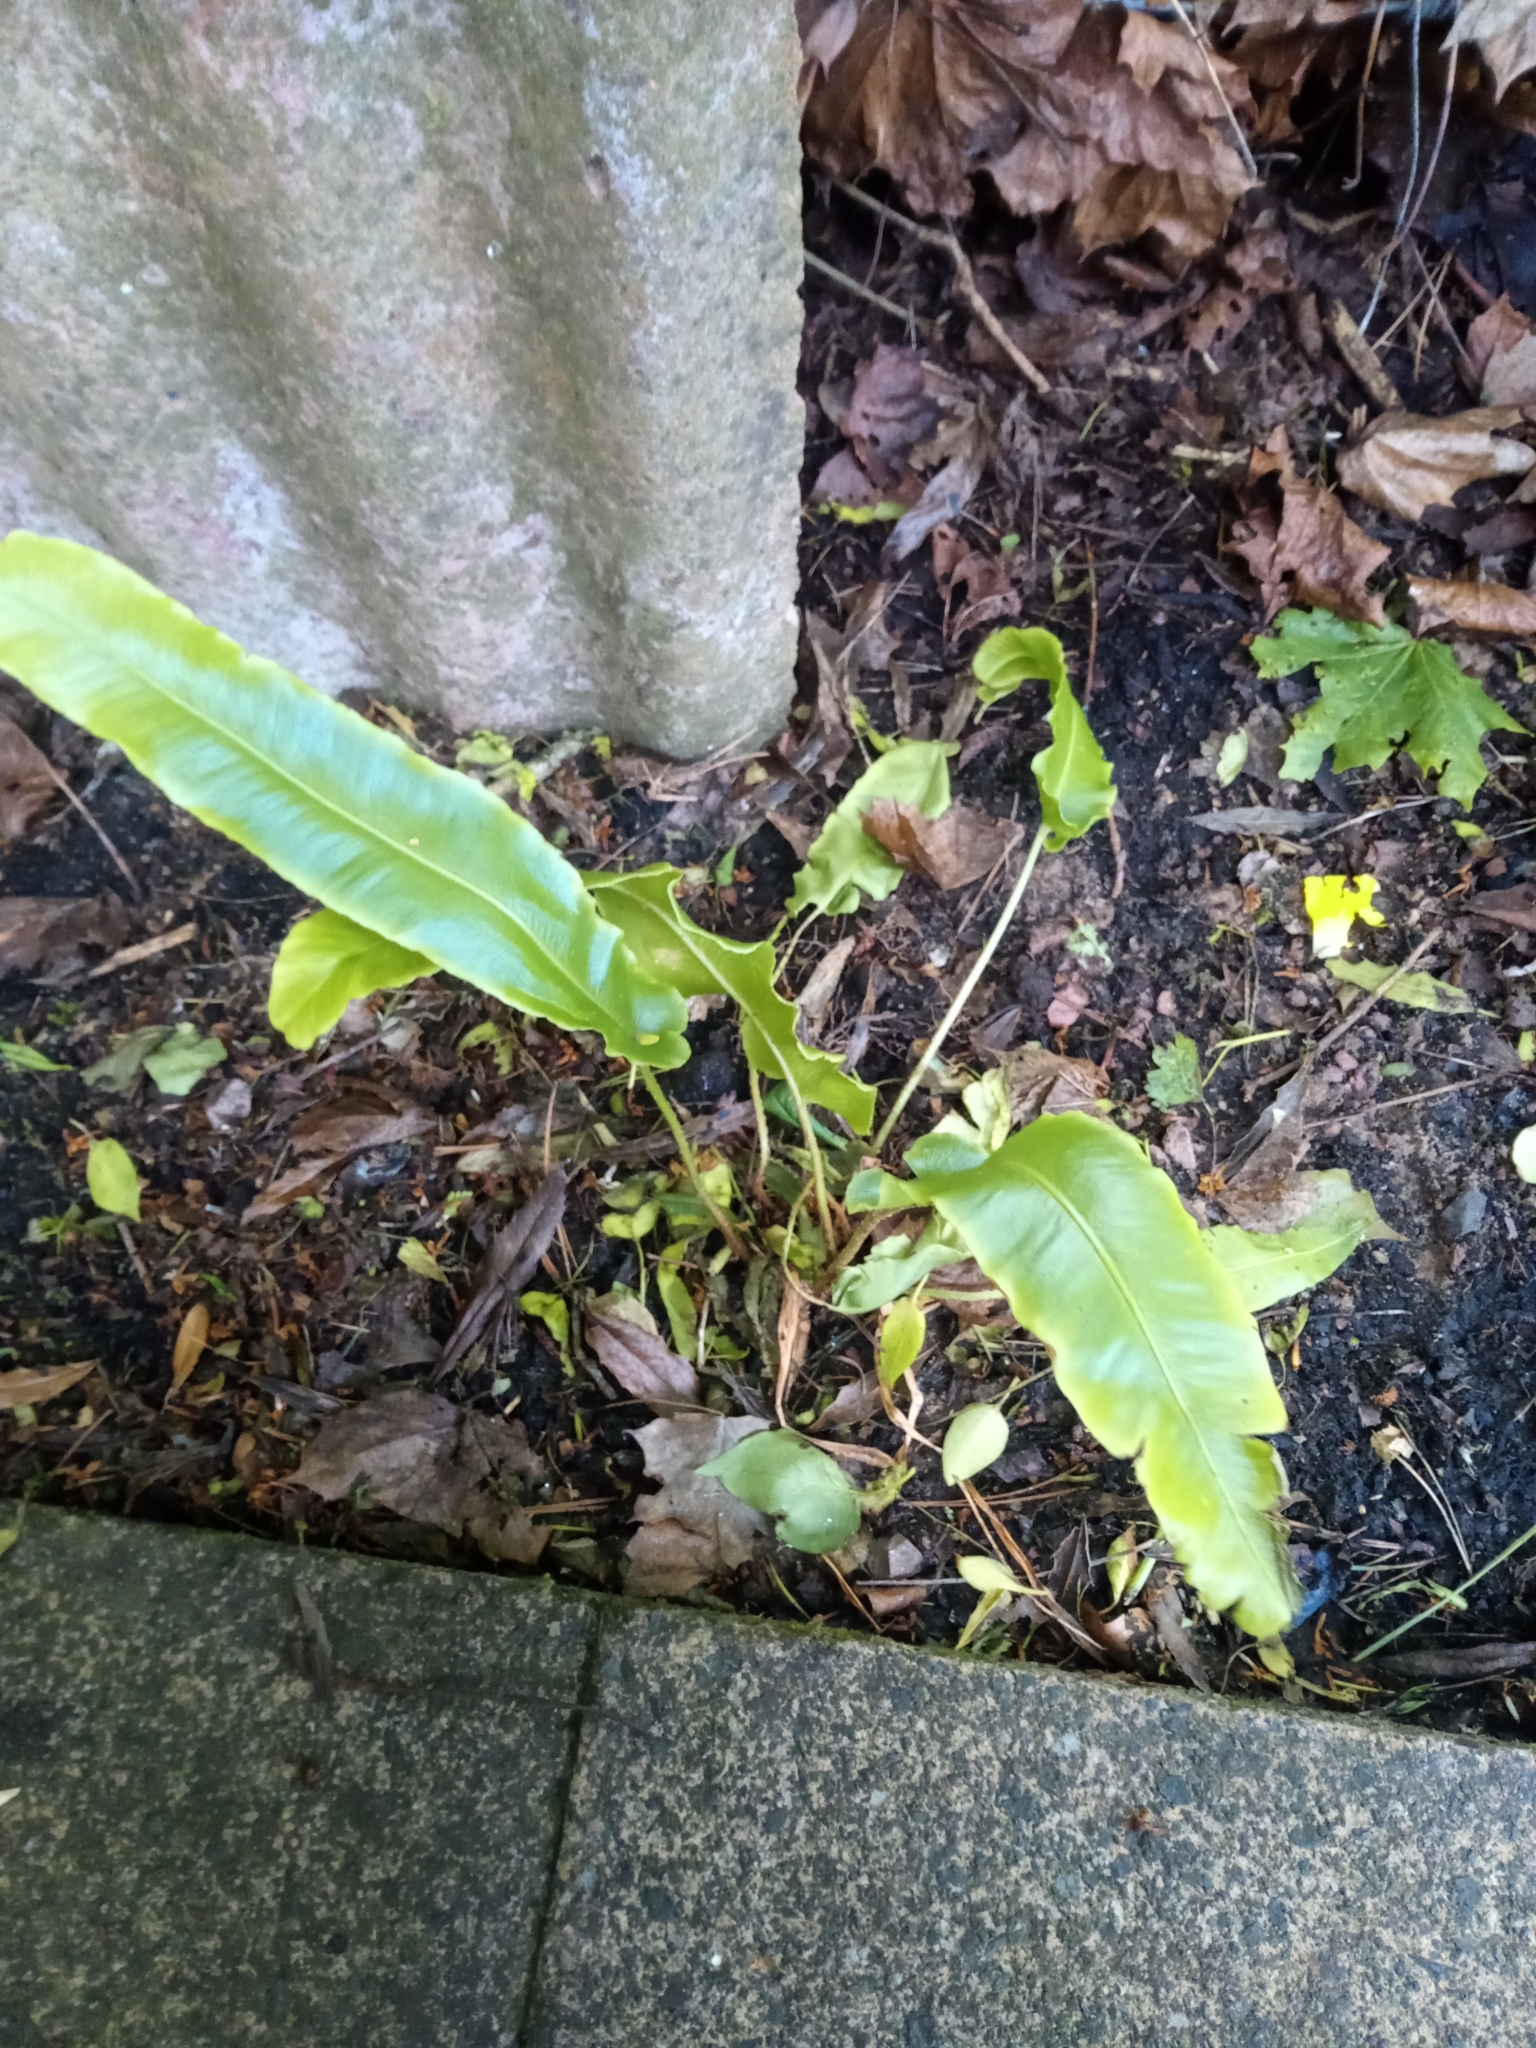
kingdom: Plantae
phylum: Tracheophyta
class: Polypodiopsida
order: Polypodiales
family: Aspleniaceae
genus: Asplenium
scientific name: Asplenium scolopendrium
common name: Hart's-tongue fern
